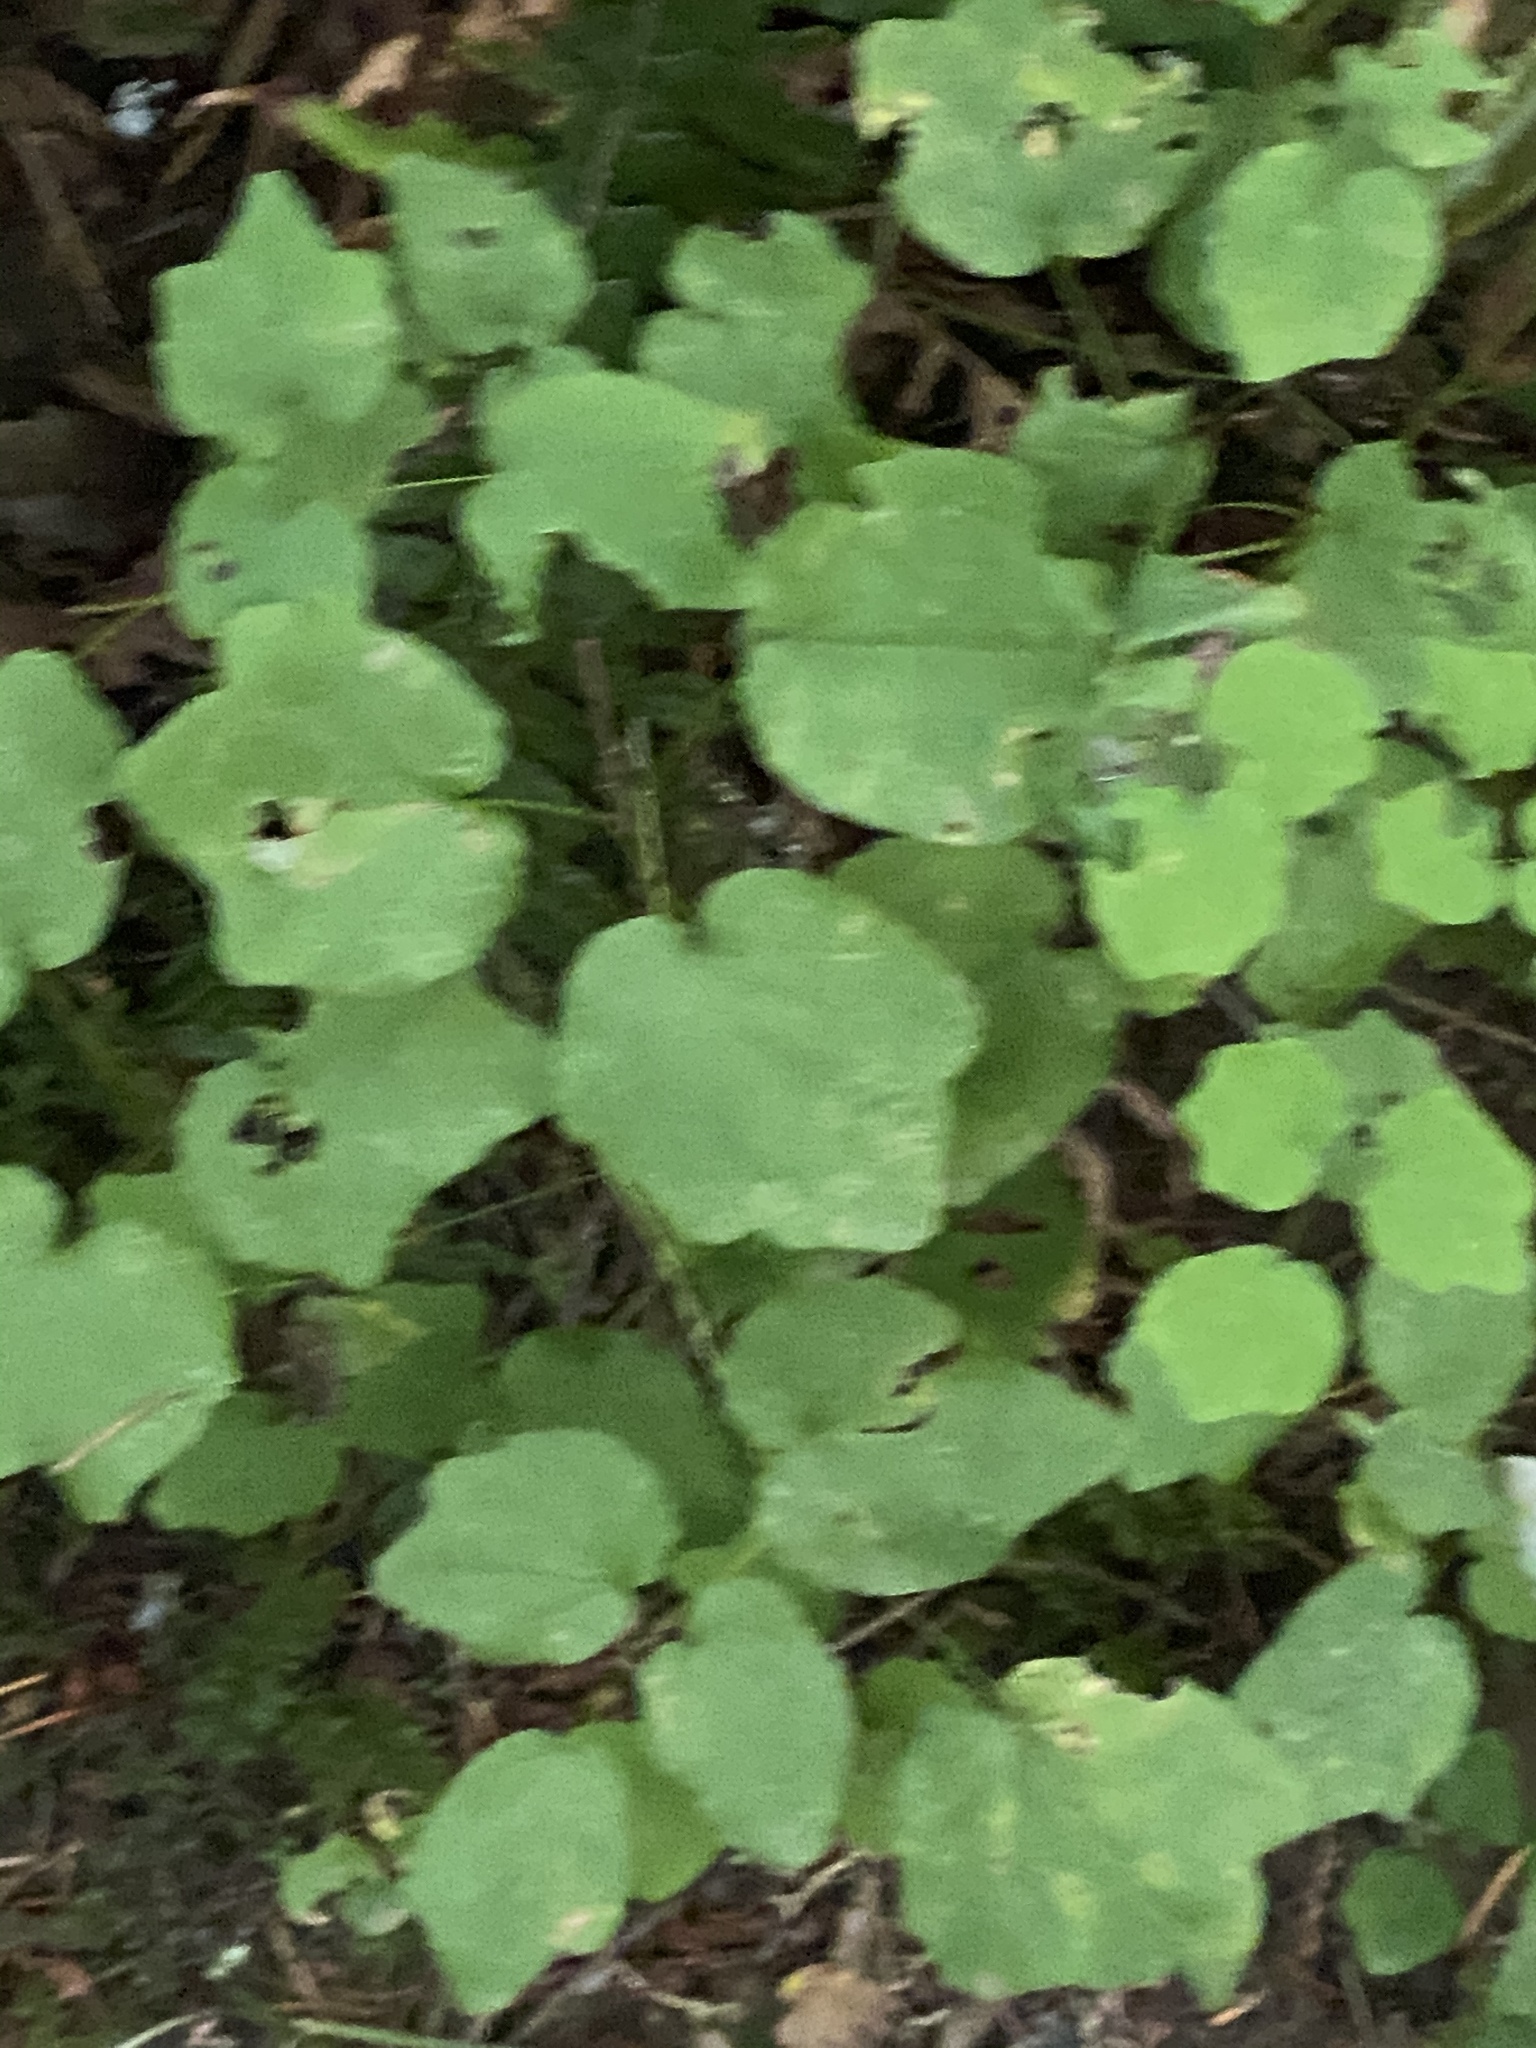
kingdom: Plantae
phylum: Tracheophyta
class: Magnoliopsida
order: Ranunculales
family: Berberidaceae
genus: Vancouveria
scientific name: Vancouveria hexandra
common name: Northern inside-out-flower
